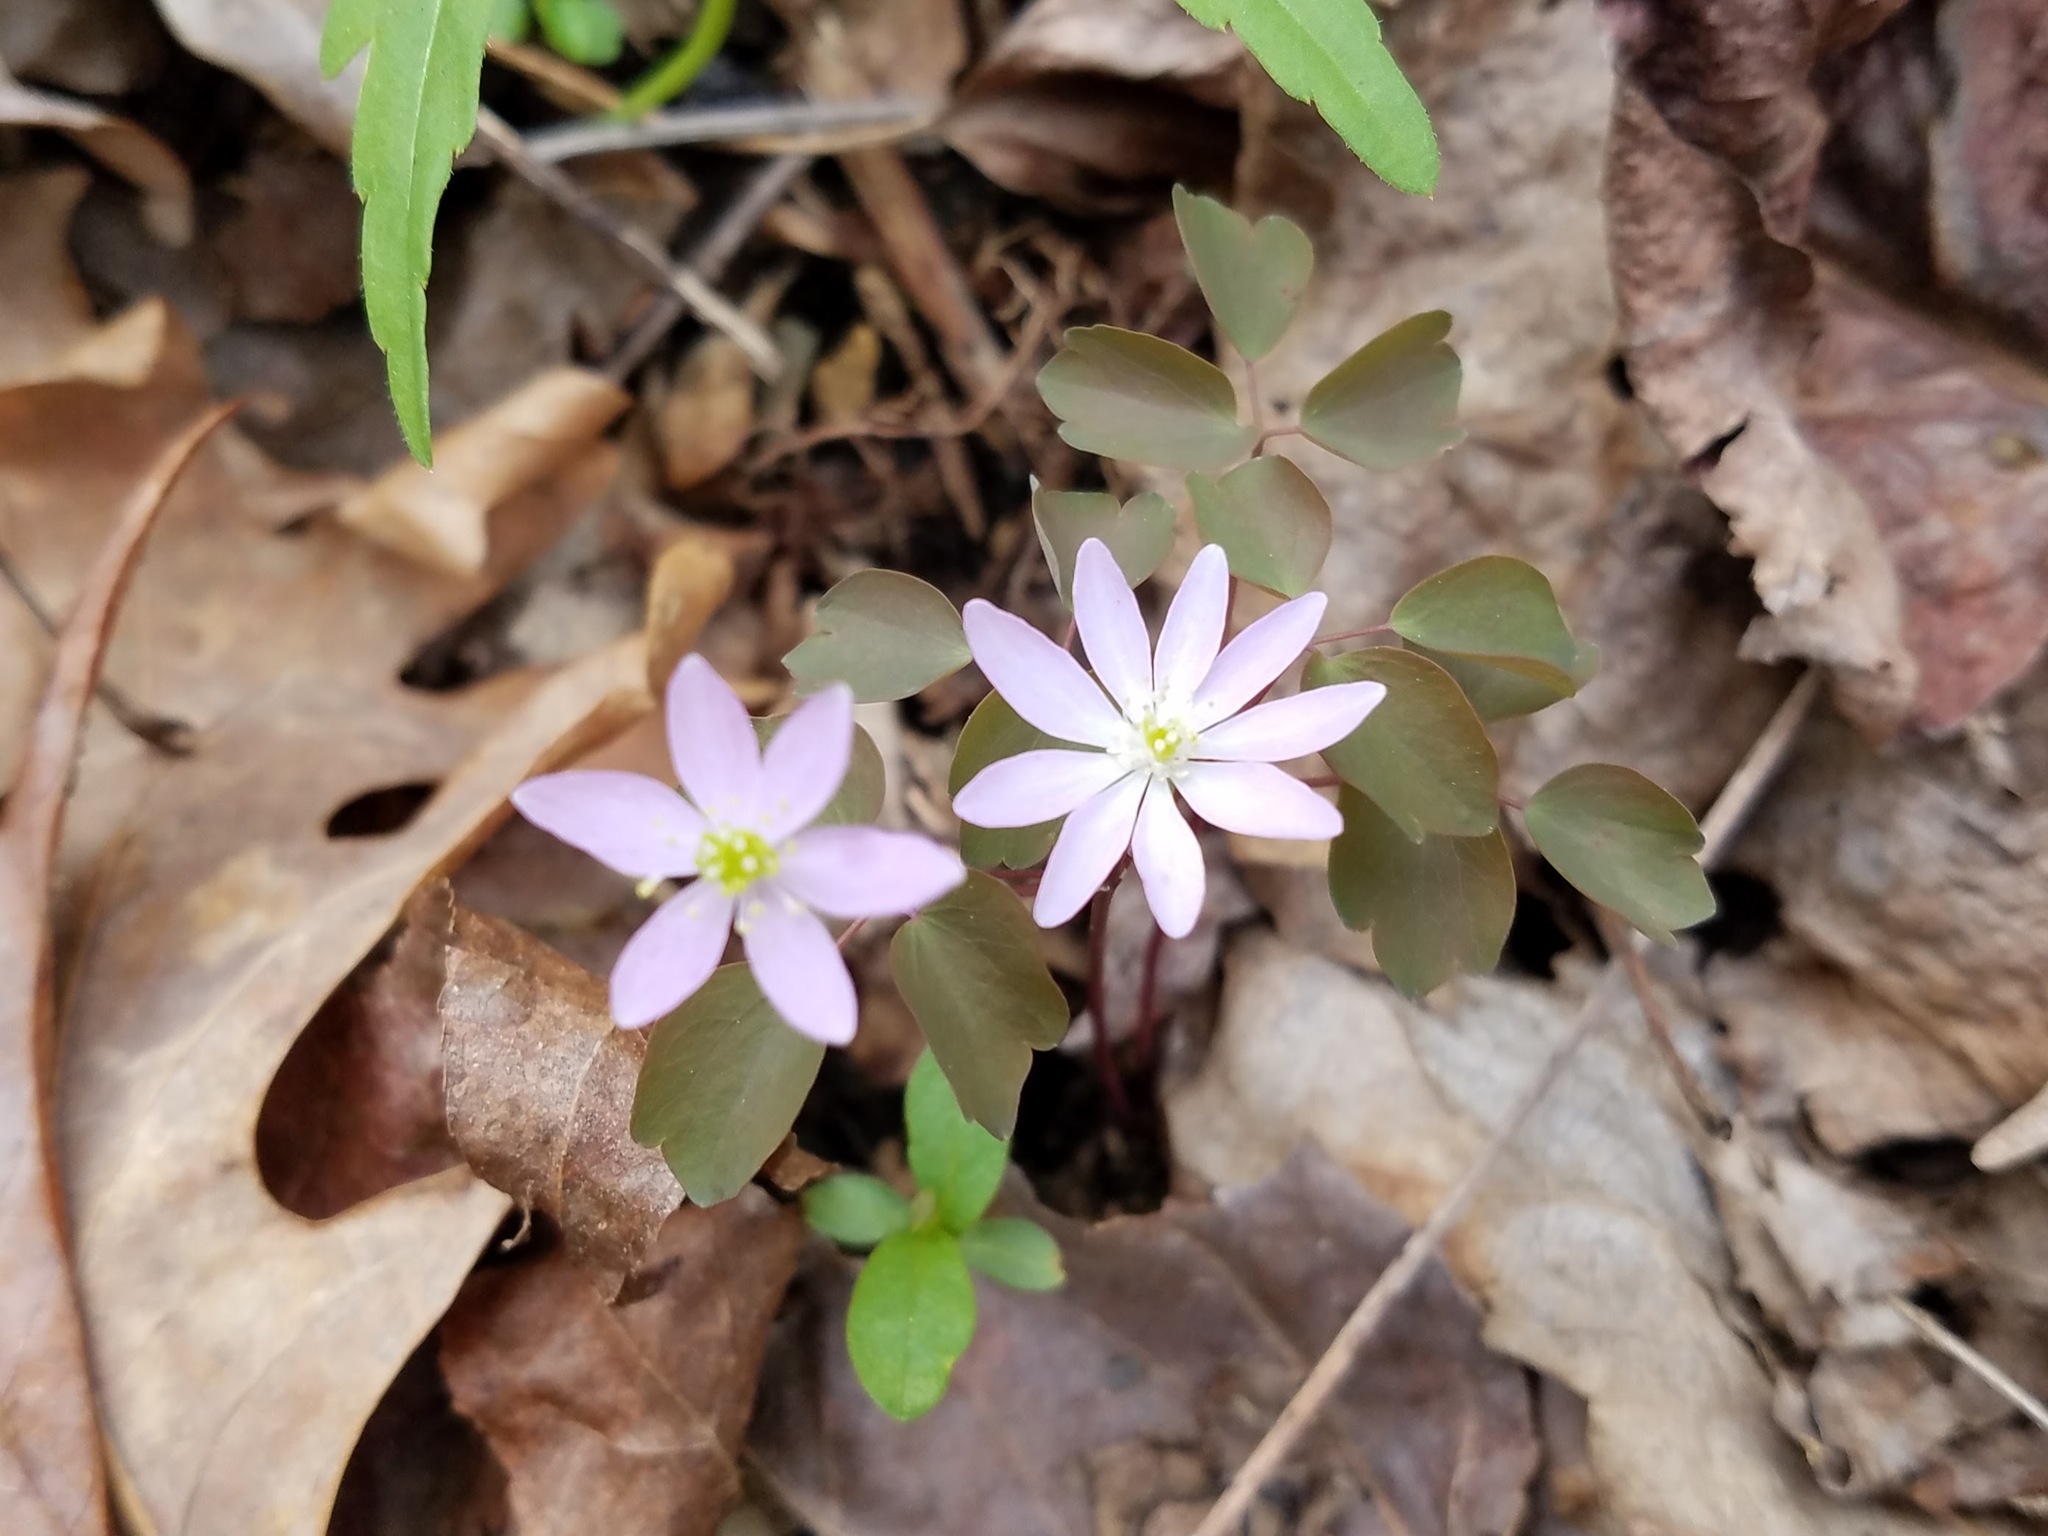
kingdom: Plantae
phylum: Tracheophyta
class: Magnoliopsida
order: Ranunculales
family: Ranunculaceae
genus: Thalictrum
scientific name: Thalictrum thalictroides
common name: Rue-anemone
